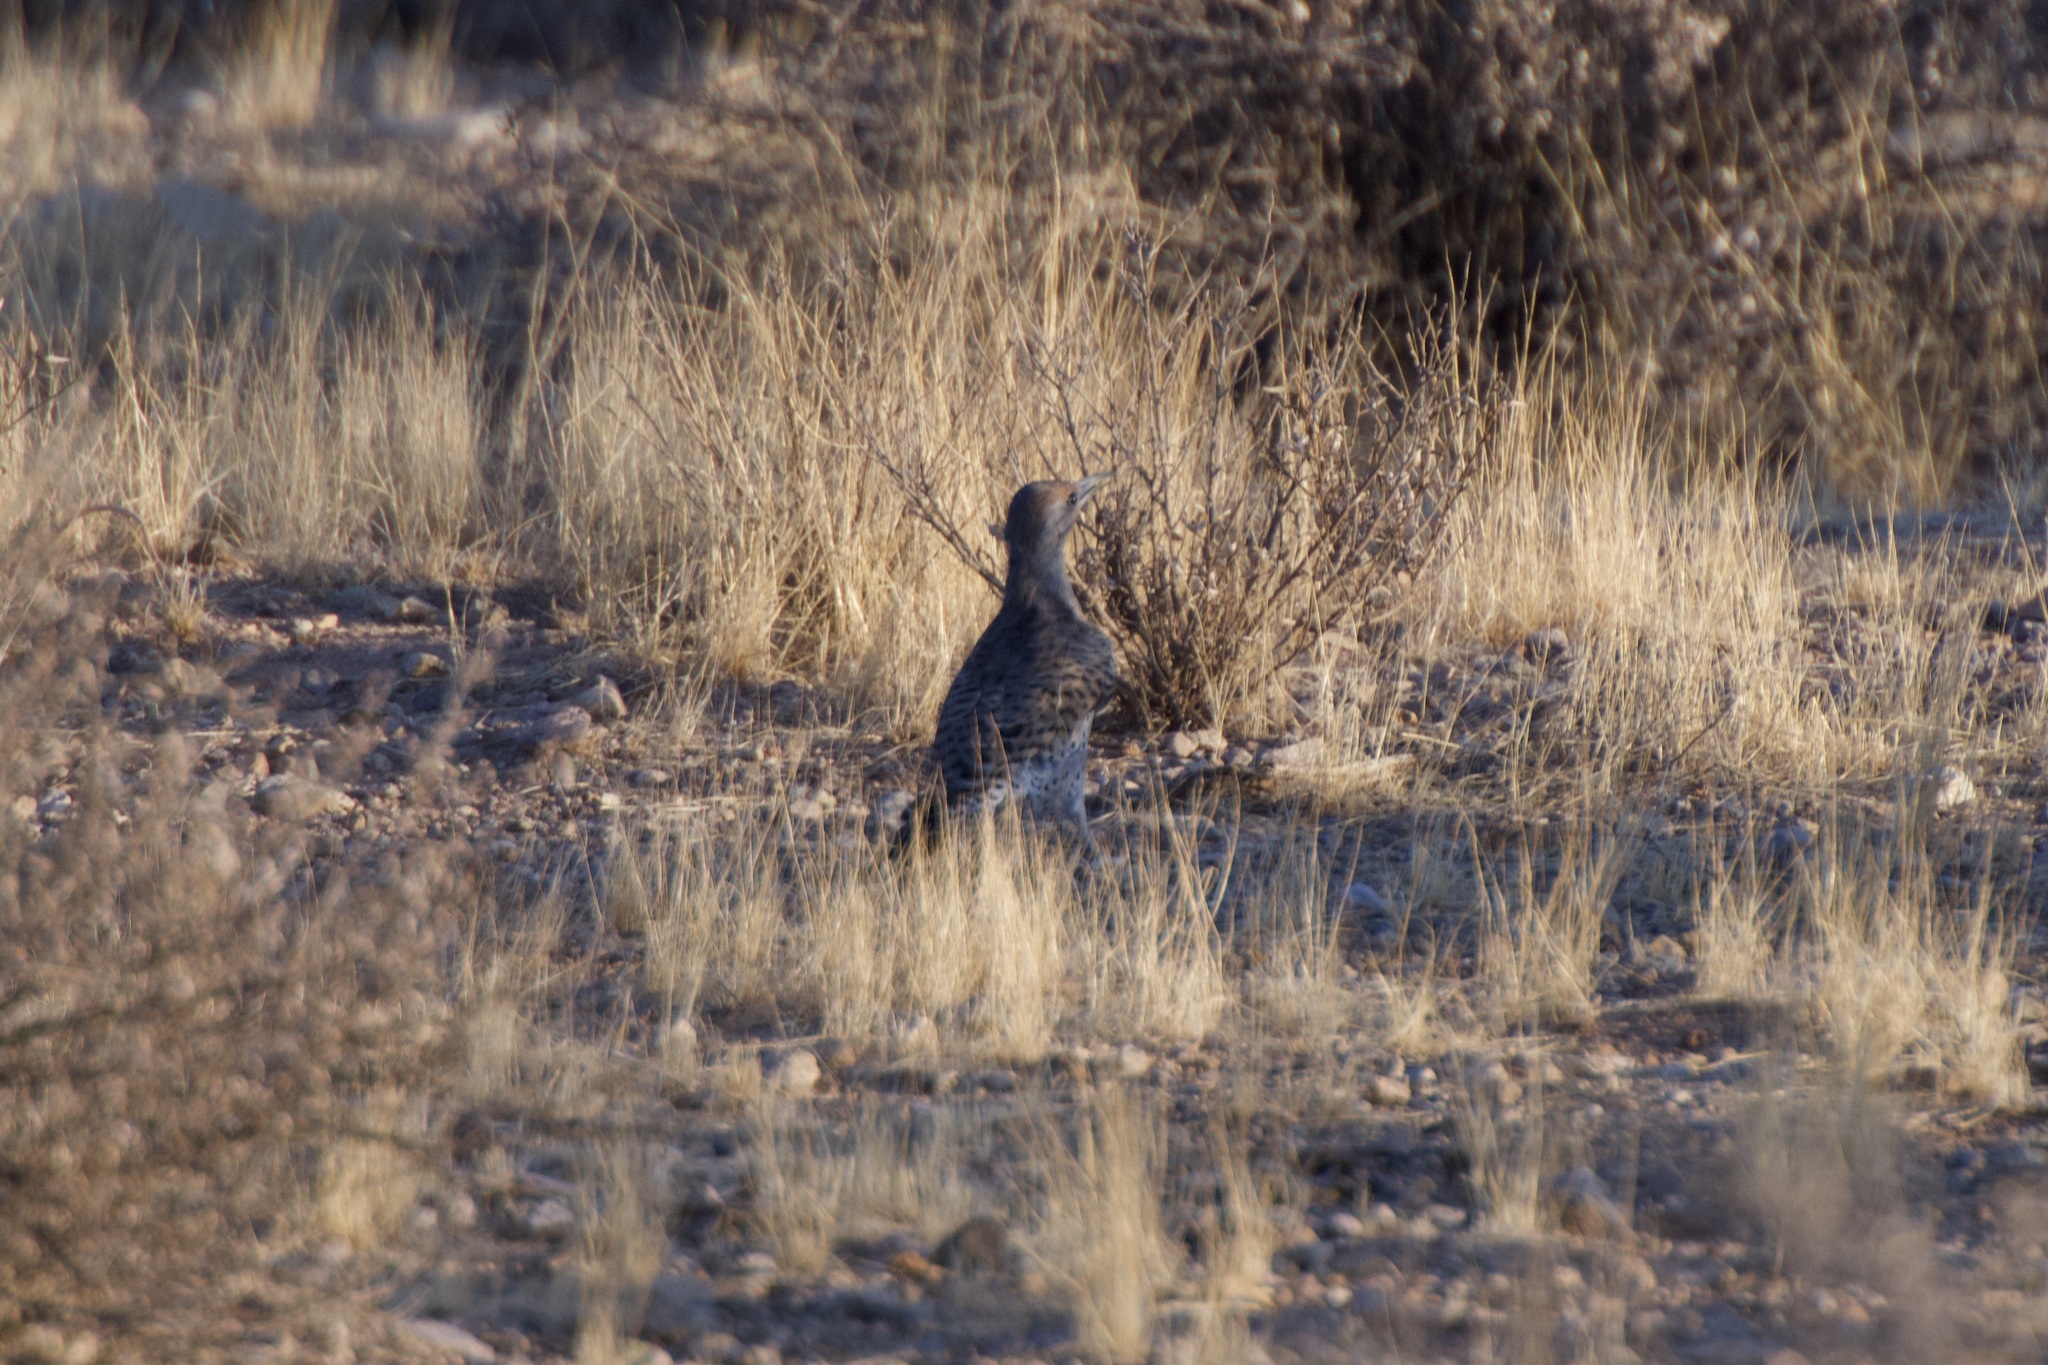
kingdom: Animalia
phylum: Chordata
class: Aves
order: Piciformes
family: Picidae
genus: Colaptes
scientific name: Colaptes chrysoides
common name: Gilded flicker
